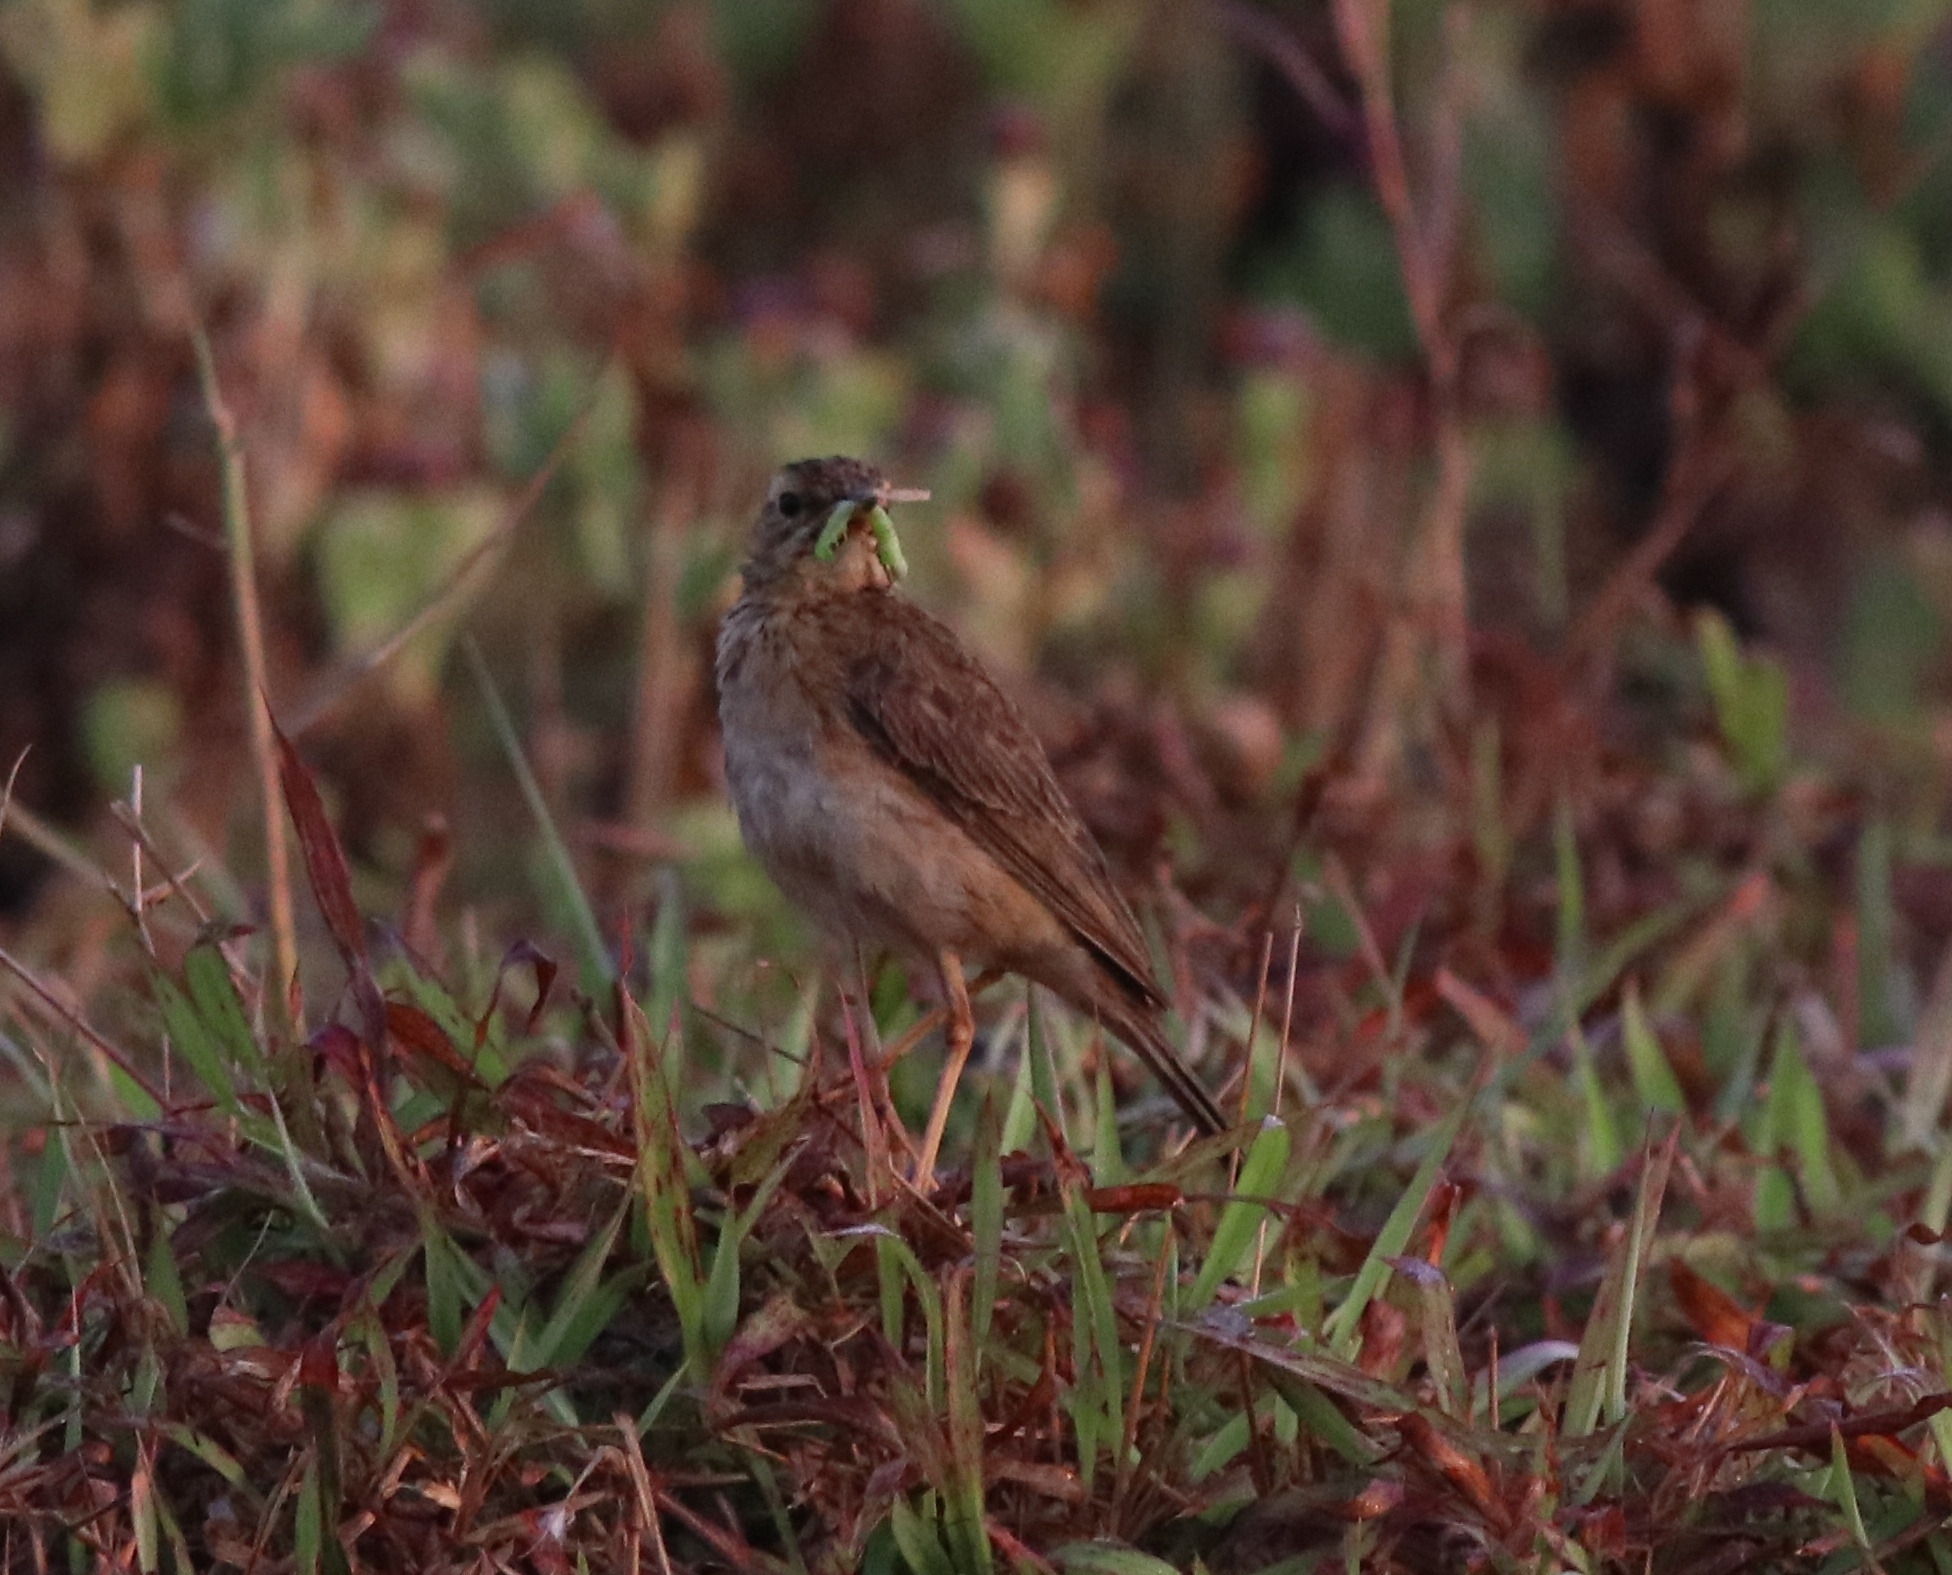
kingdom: Animalia
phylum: Chordata
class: Aves
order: Passeriformes
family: Motacillidae
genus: Anthus
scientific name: Anthus rufulus
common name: Paddyfield pipit
